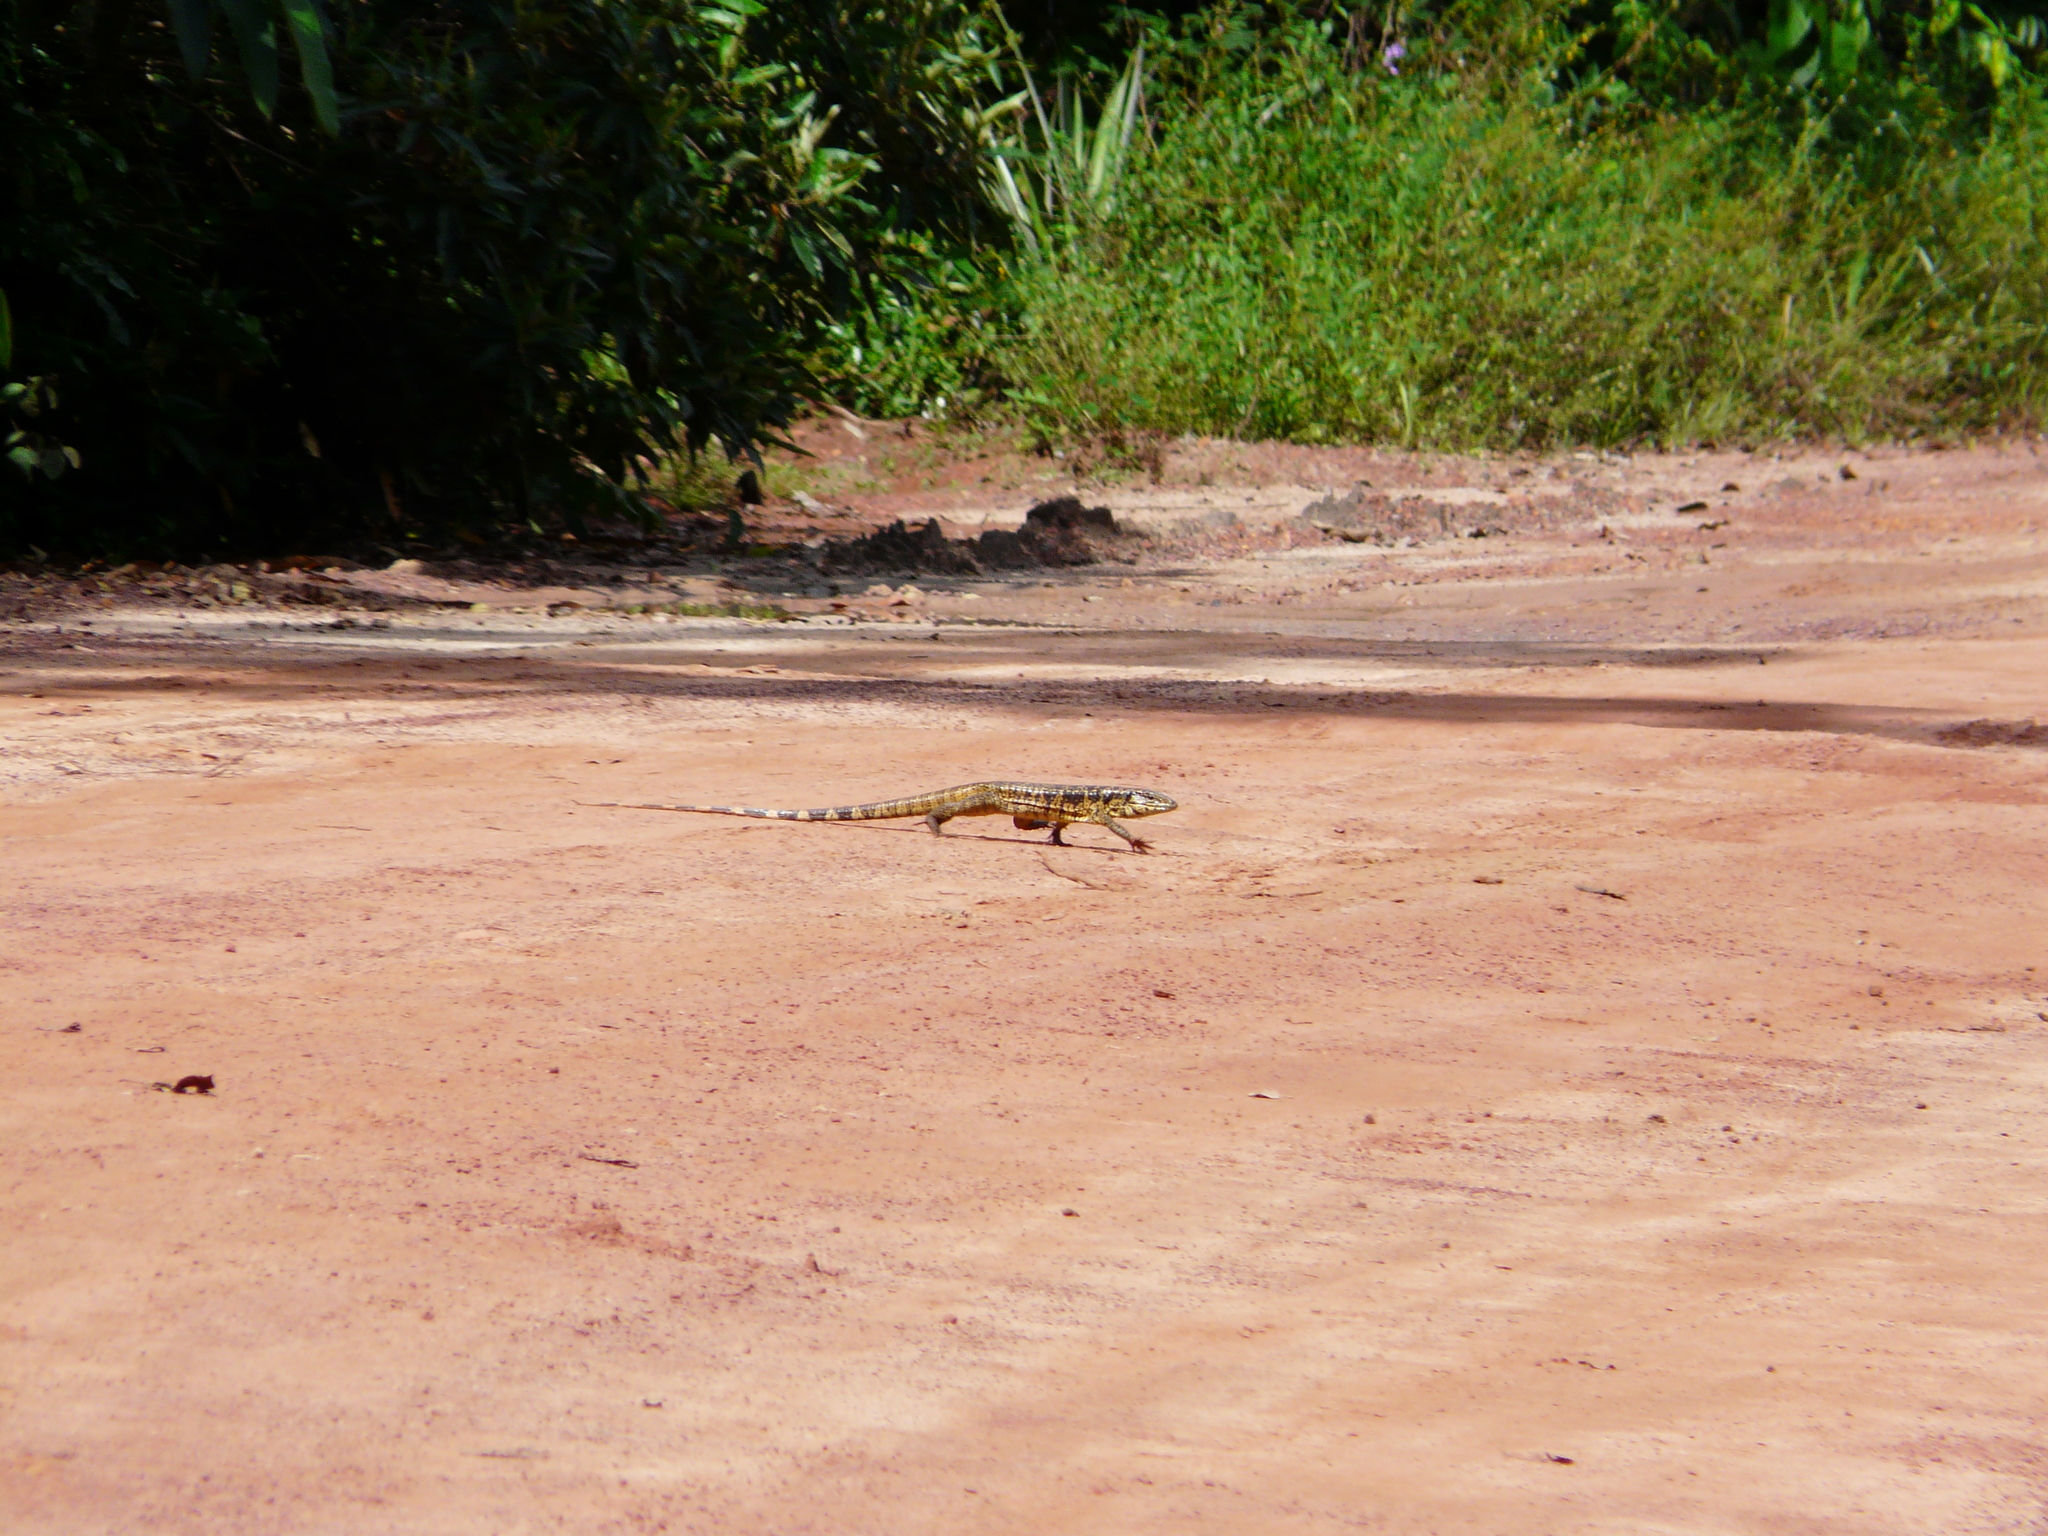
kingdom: Animalia
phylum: Chordata
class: Squamata
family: Teiidae
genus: Tupinambis
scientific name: Tupinambis teguixin
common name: Black tegu
